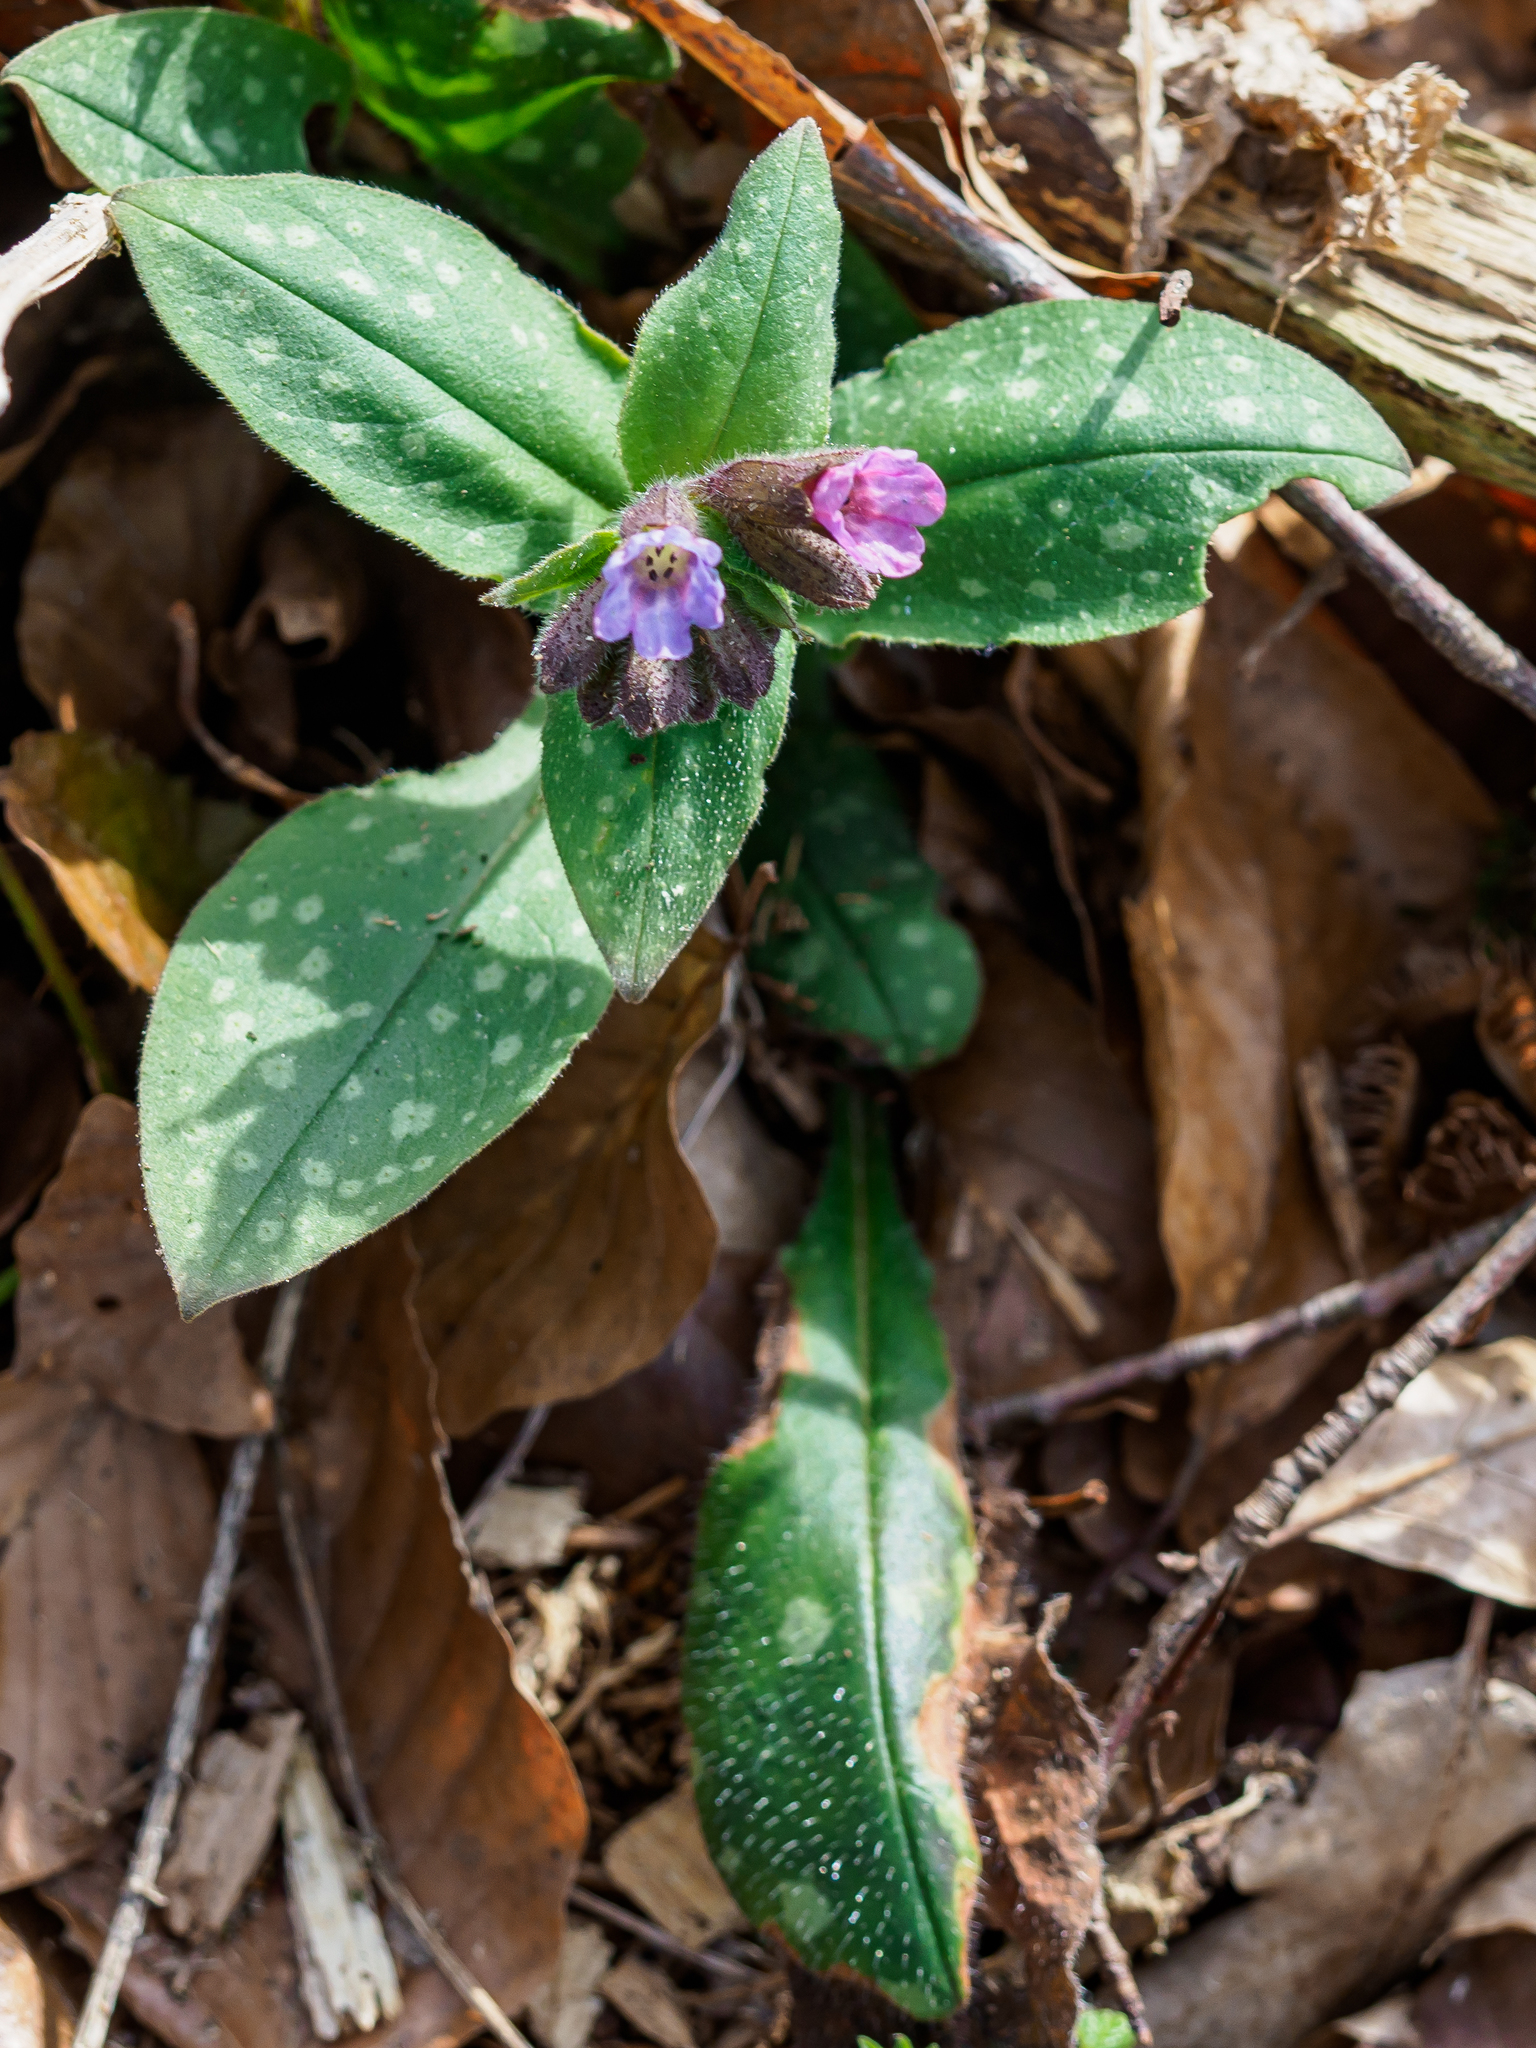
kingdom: Plantae
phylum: Tracheophyta
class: Magnoliopsida
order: Boraginales
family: Boraginaceae
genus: Pulmonaria
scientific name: Pulmonaria officinalis
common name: Lungwort
